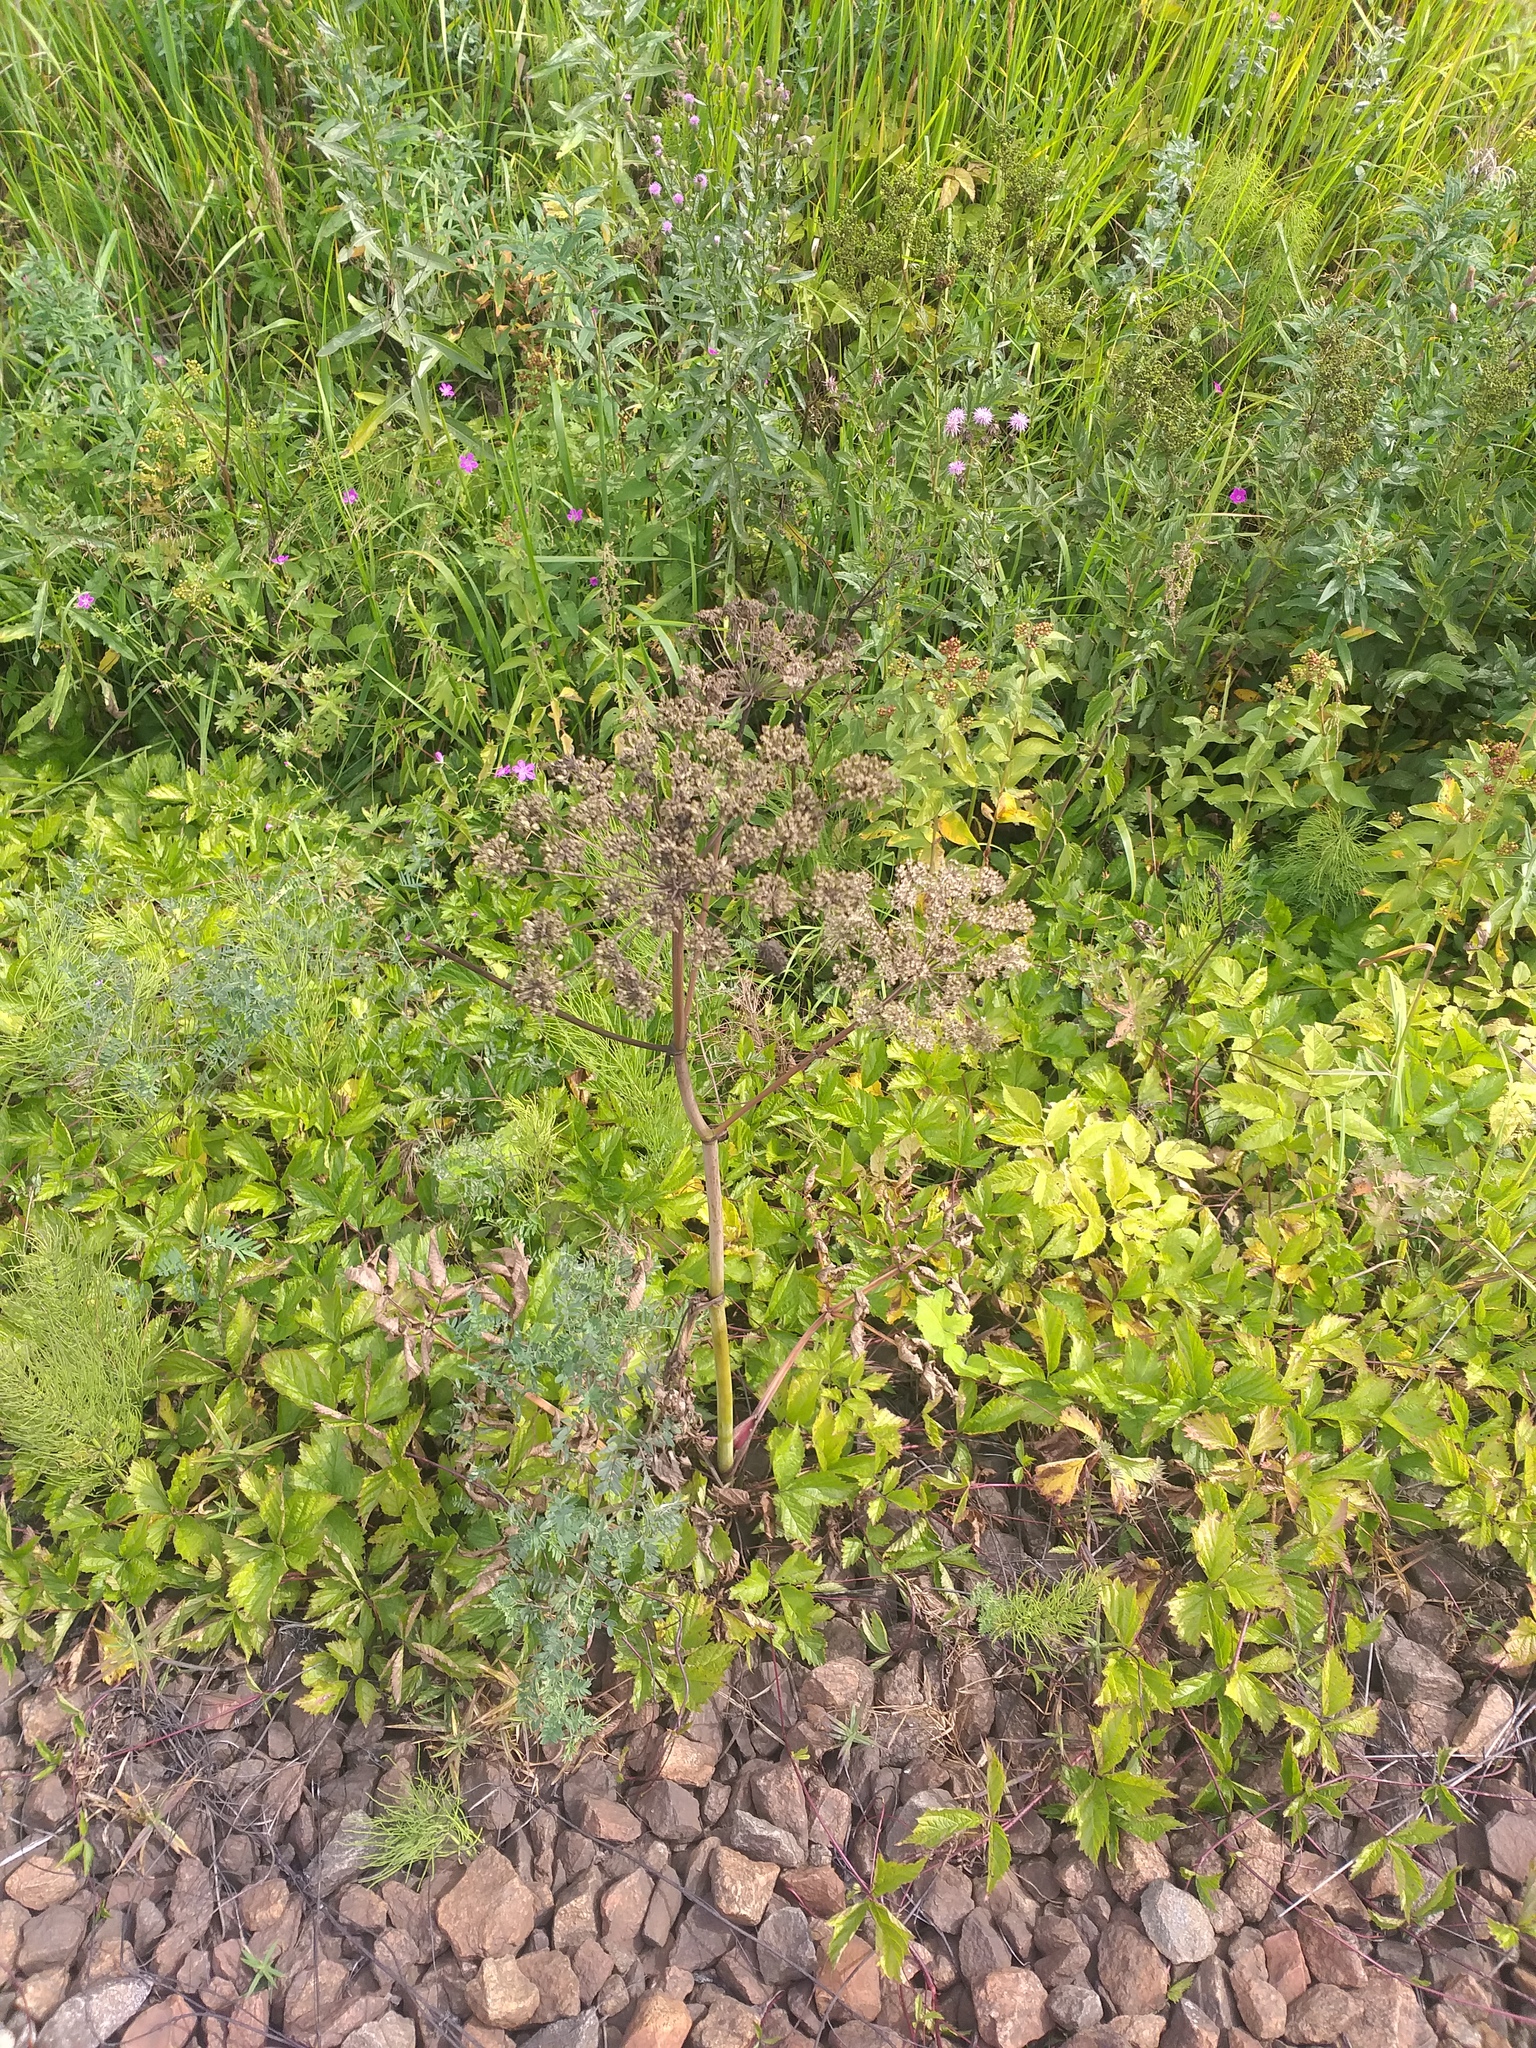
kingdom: Plantae
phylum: Tracheophyta
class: Magnoliopsida
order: Apiales
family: Apiaceae
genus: Angelica
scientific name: Angelica sylvestris
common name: Wild angelica
